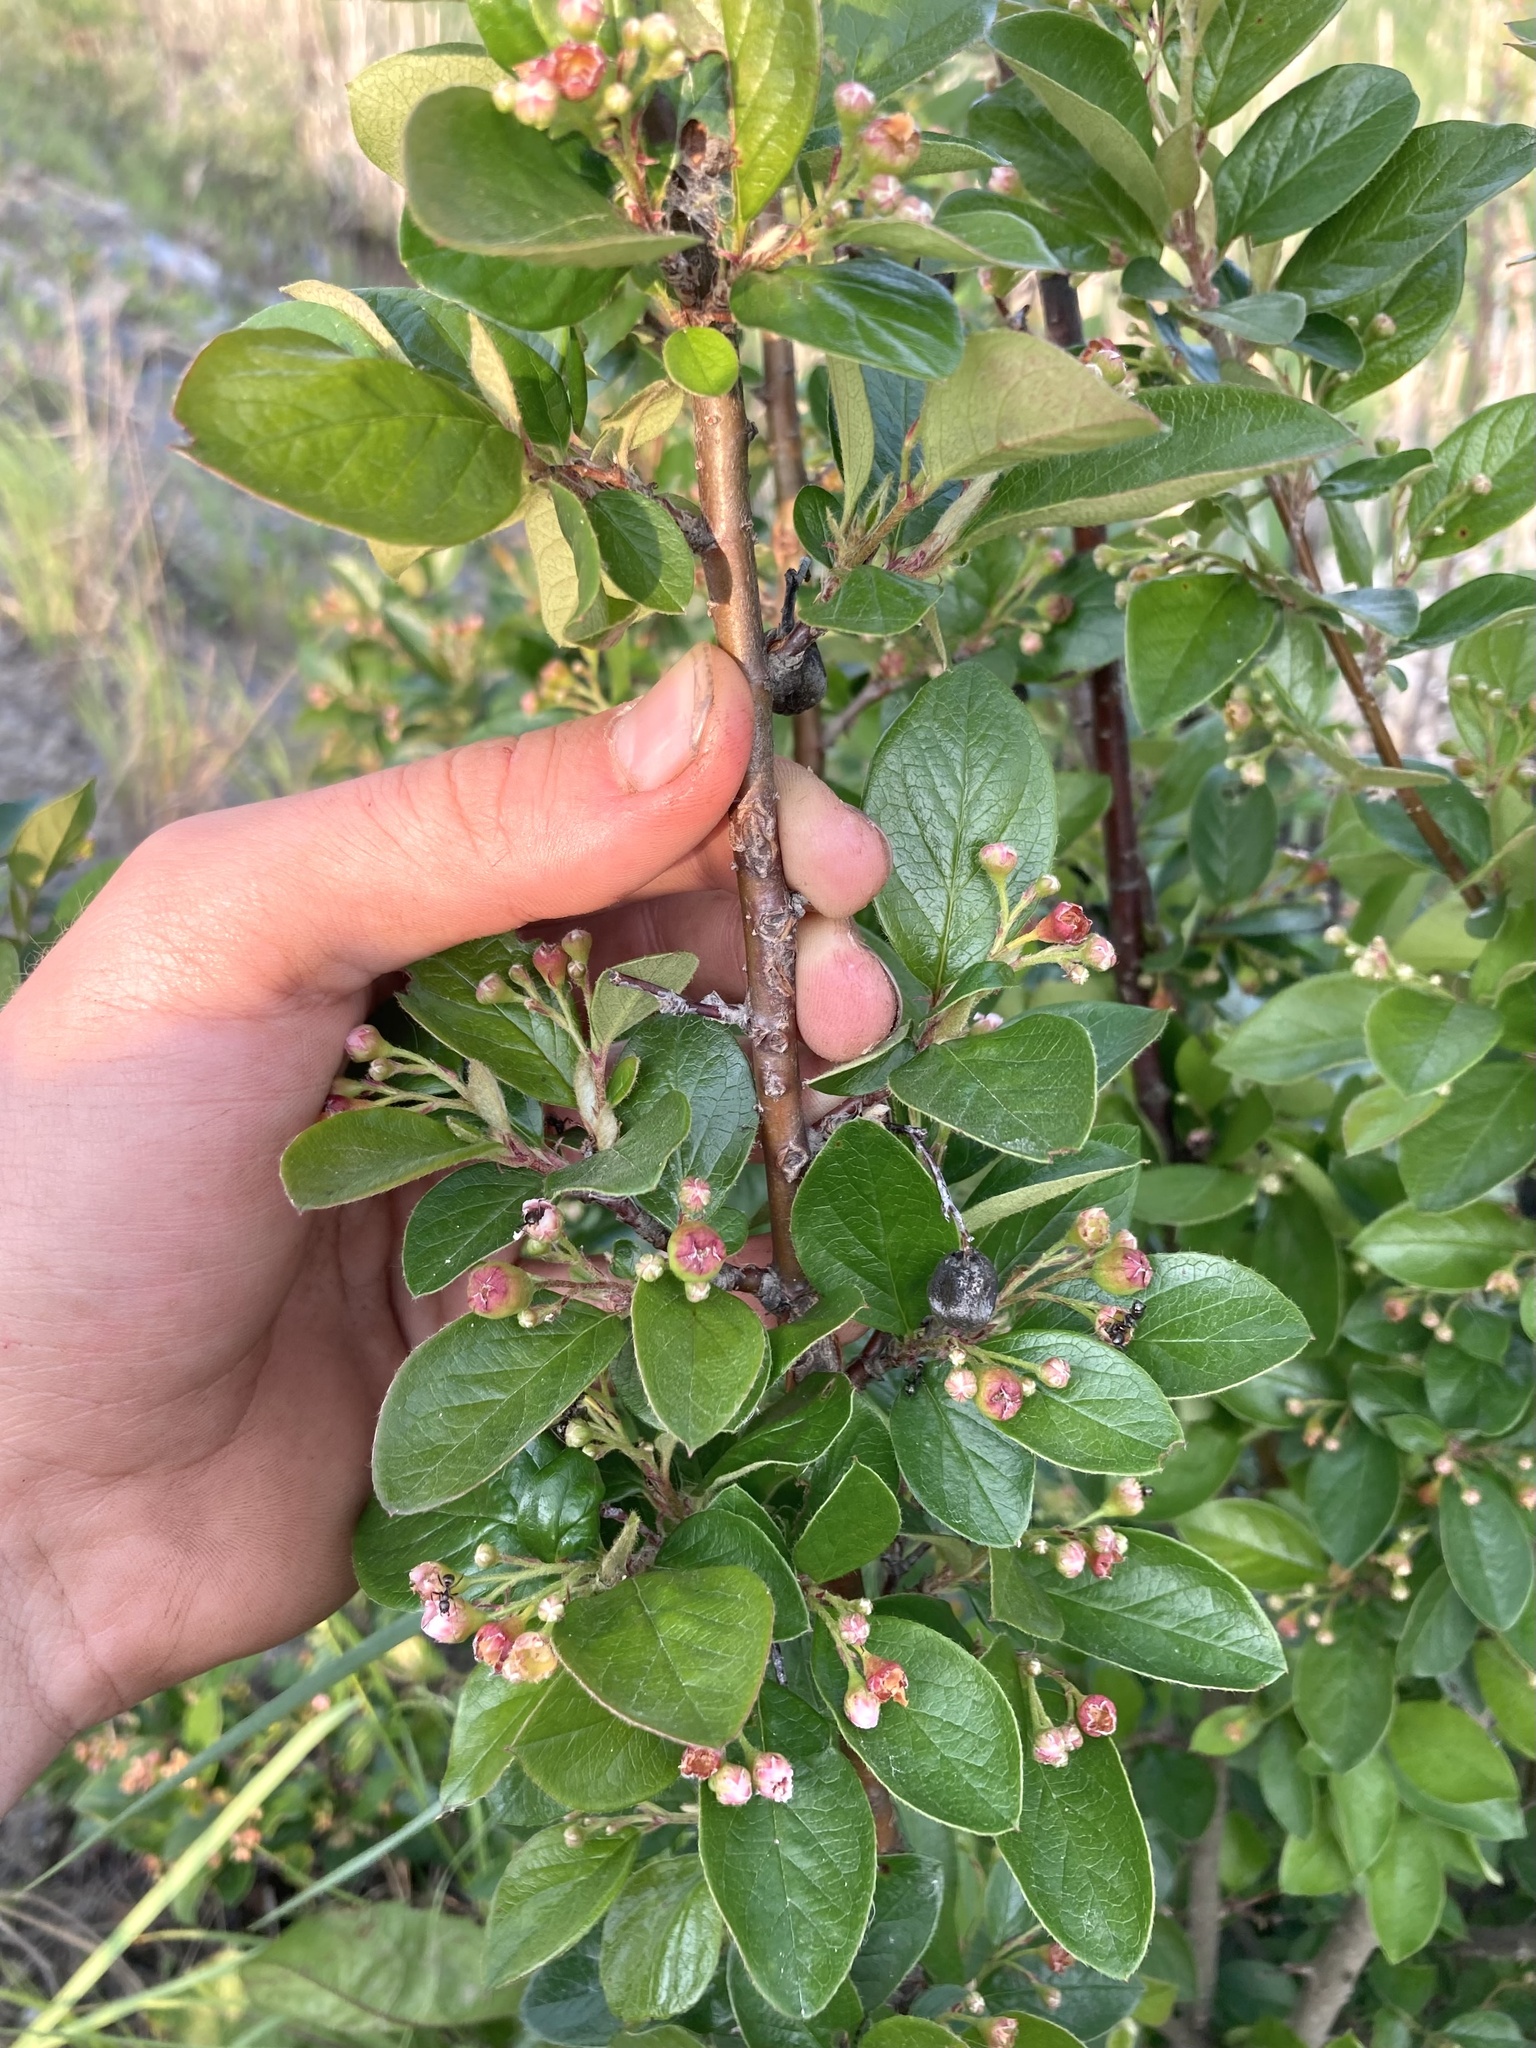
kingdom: Plantae
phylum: Tracheophyta
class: Magnoliopsida
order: Rosales
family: Rosaceae
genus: Cotoneaster
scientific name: Cotoneaster acutifolius
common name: Peking cotoneaster
